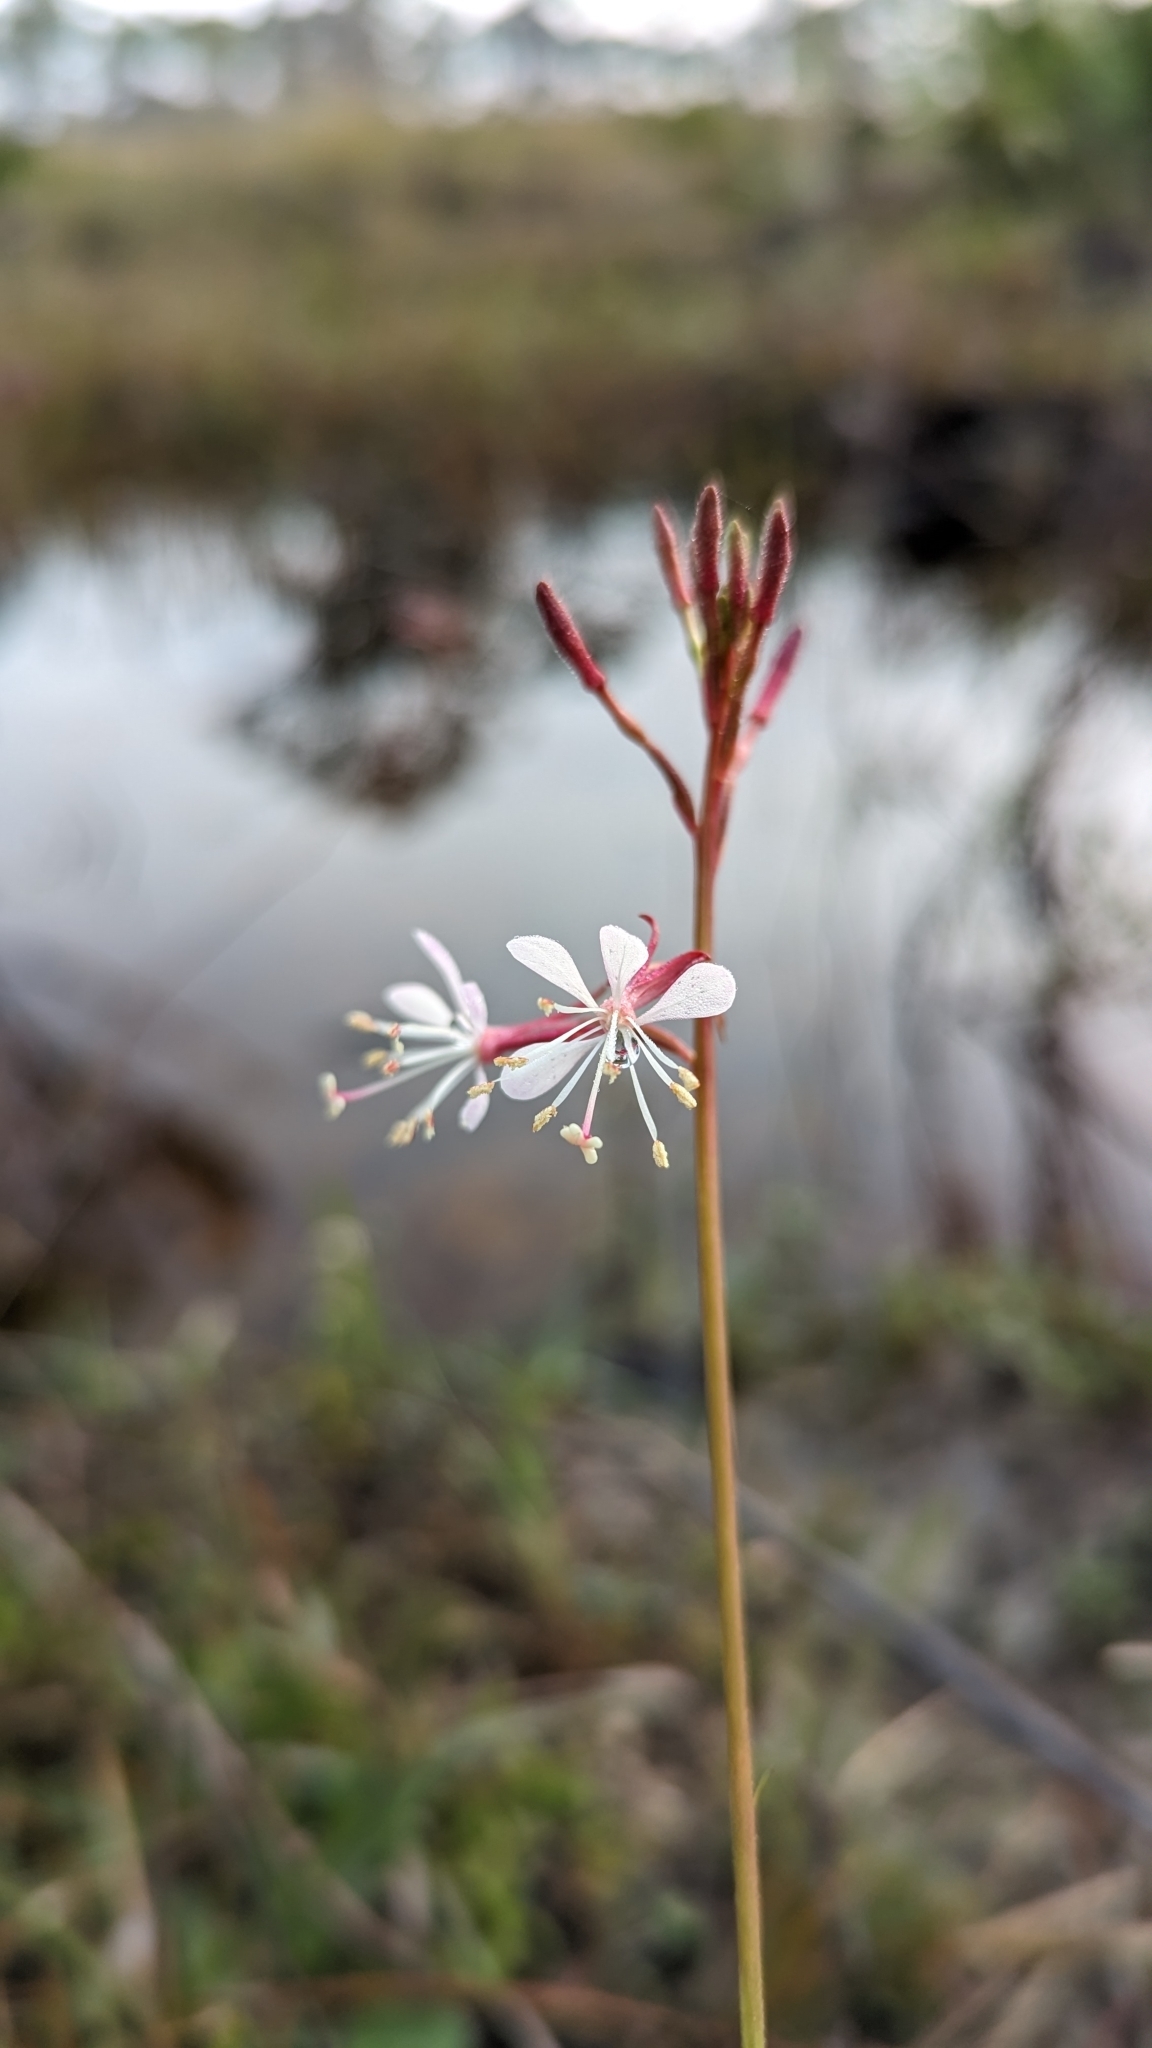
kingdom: Plantae
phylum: Tracheophyta
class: Magnoliopsida
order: Myrtales
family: Onagraceae
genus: Oenothera
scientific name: Oenothera simulans
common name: Southern beeblossom
